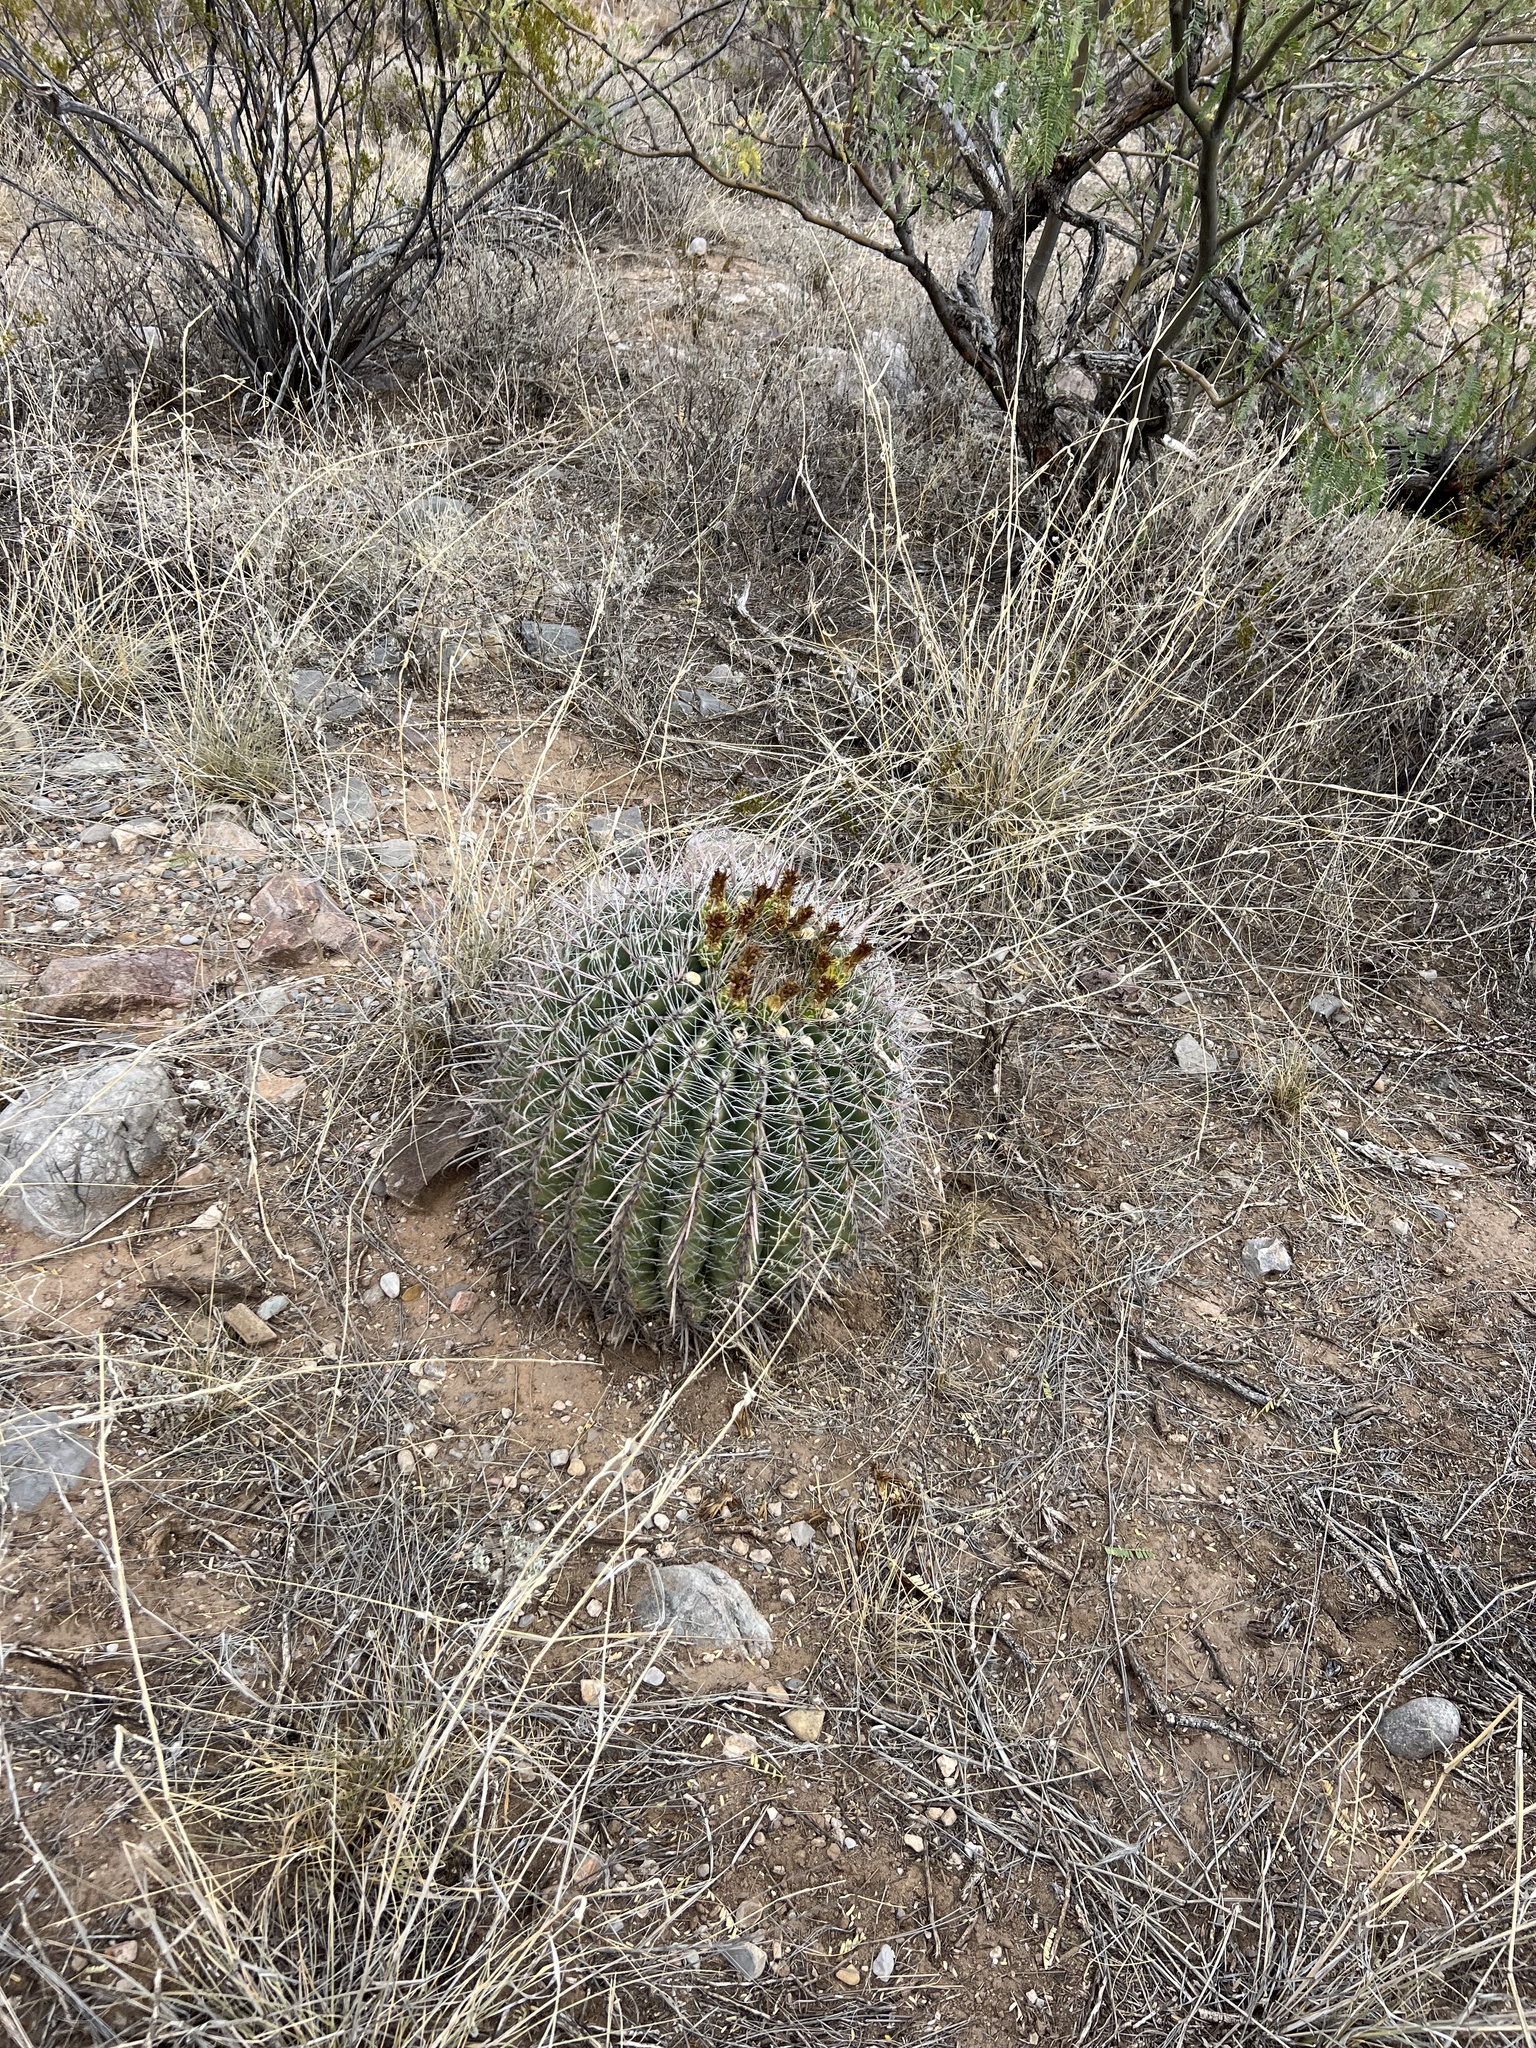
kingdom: Plantae
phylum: Tracheophyta
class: Magnoliopsida
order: Caryophyllales
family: Cactaceae
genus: Ferocactus
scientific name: Ferocactus wislizeni
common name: Candy barrel cactus
